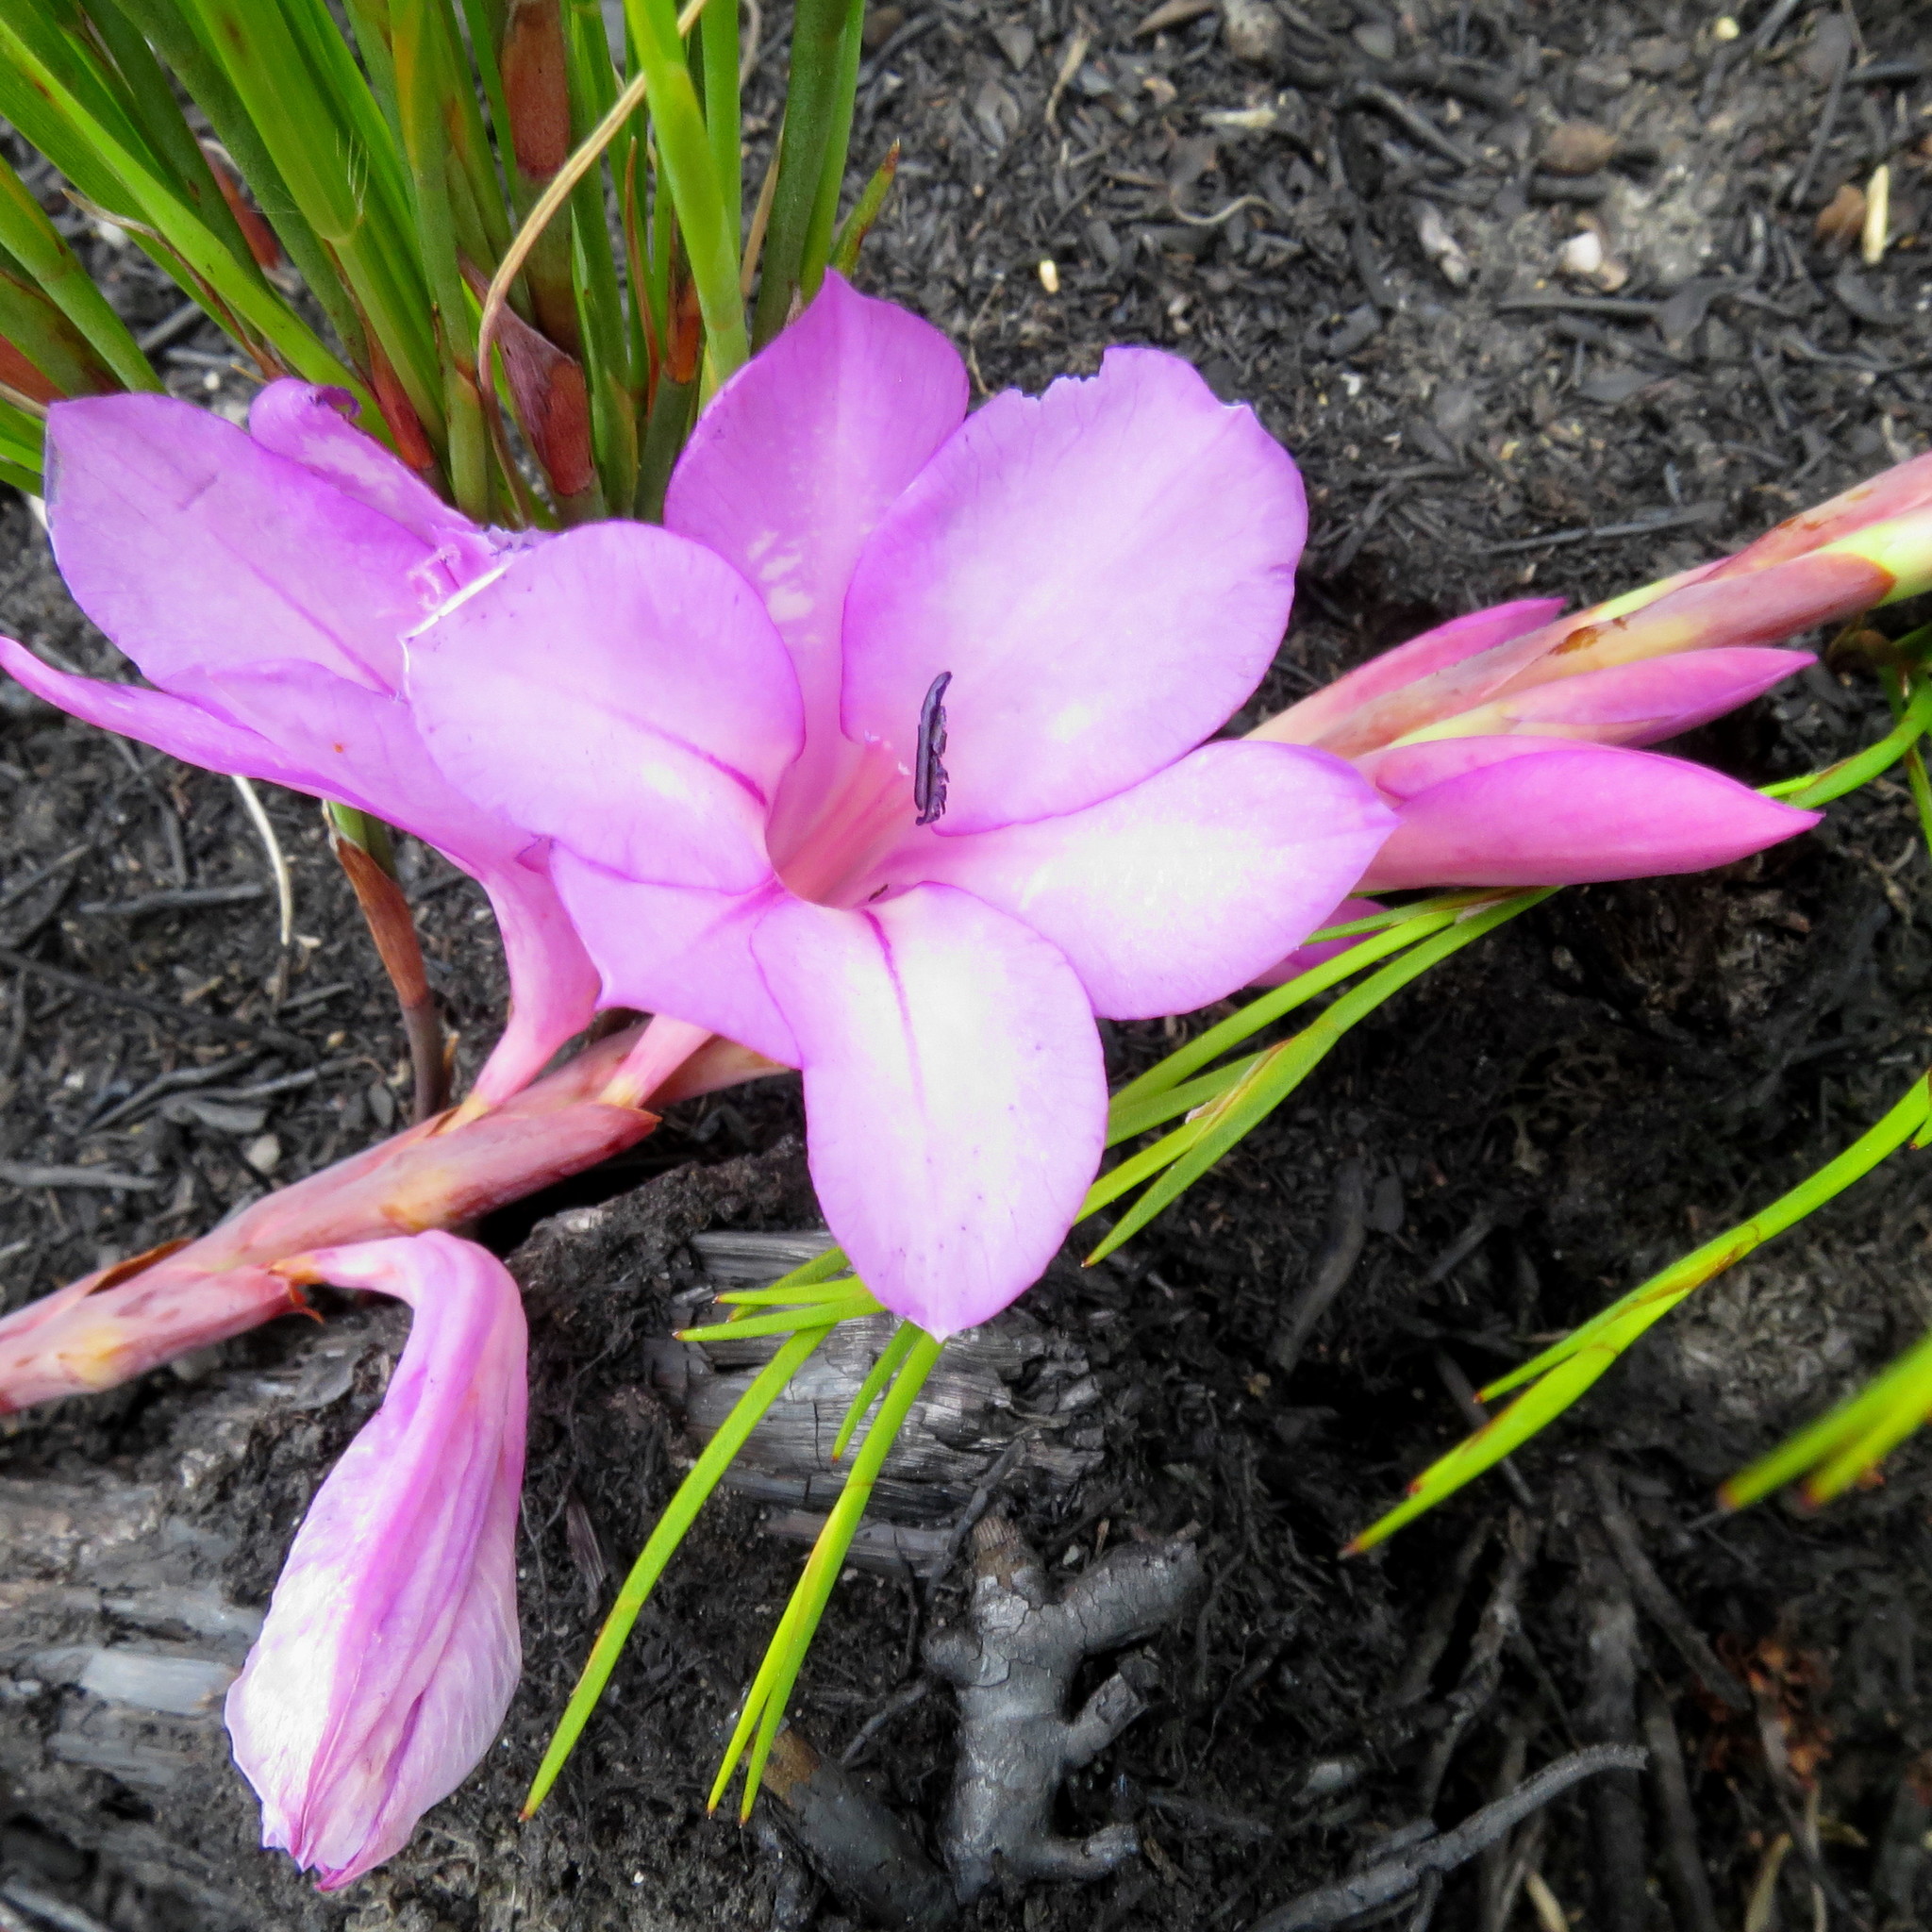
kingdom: Plantae
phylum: Tracheophyta
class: Liliopsida
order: Asparagales
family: Iridaceae
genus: Watsonia
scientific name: Watsonia fourcadei
